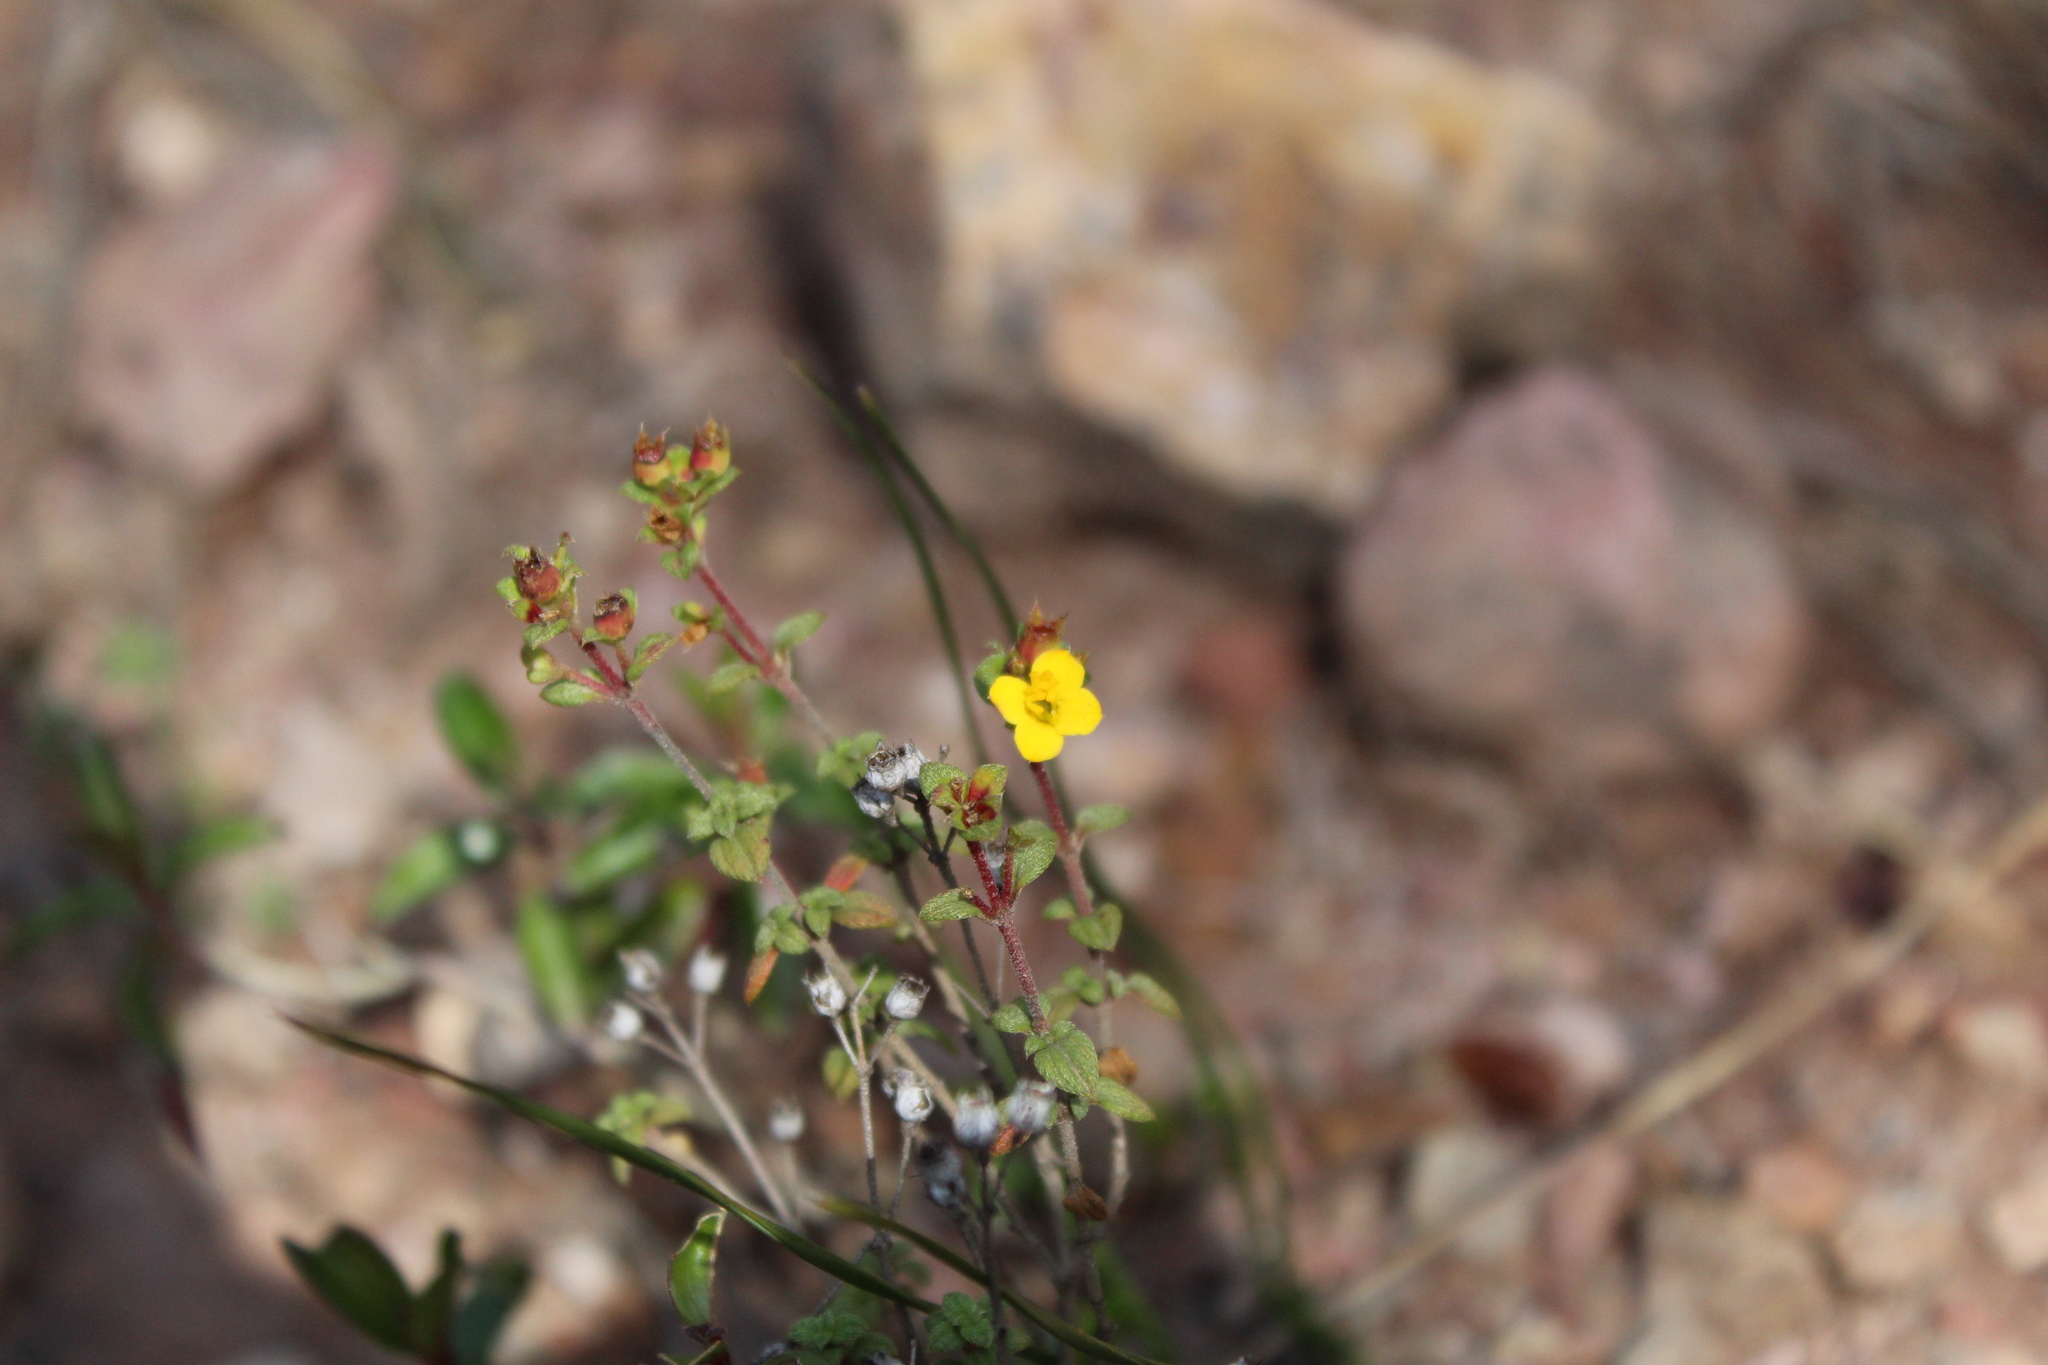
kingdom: Plantae
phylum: Tracheophyta
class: Magnoliopsida
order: Myrtales
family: Melastomataceae
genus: Chaetolepis
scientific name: Chaetolepis microphylla
